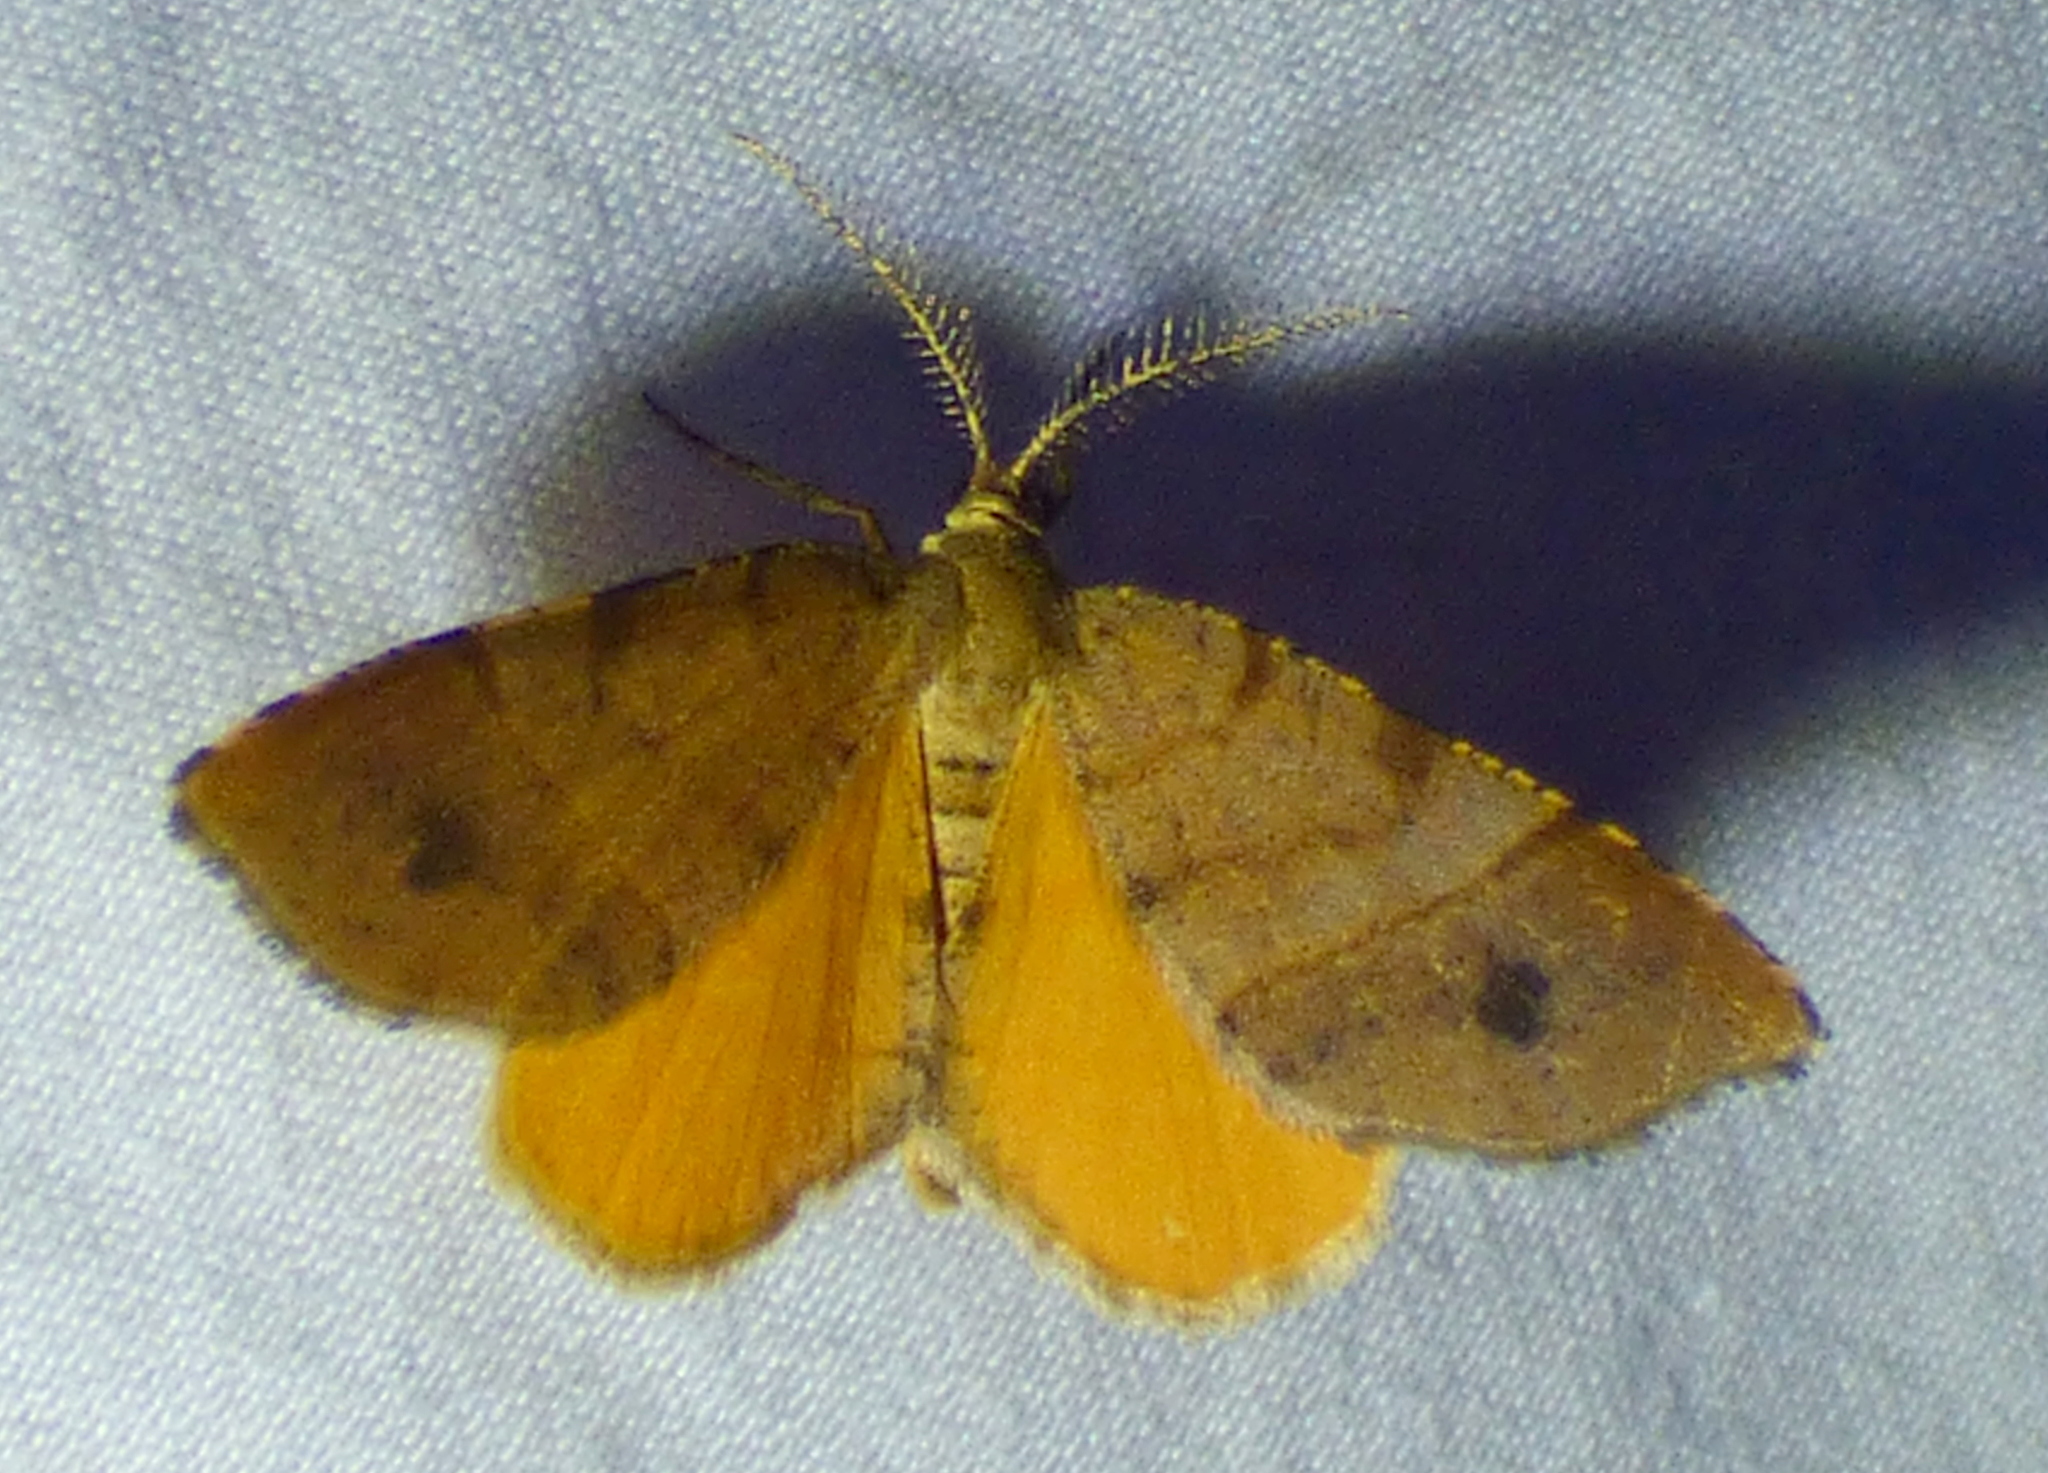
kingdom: Animalia
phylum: Arthropoda
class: Insecta
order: Lepidoptera
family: Geometridae
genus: Mellilla
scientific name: Mellilla xanthometata
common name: Orange wing moth
